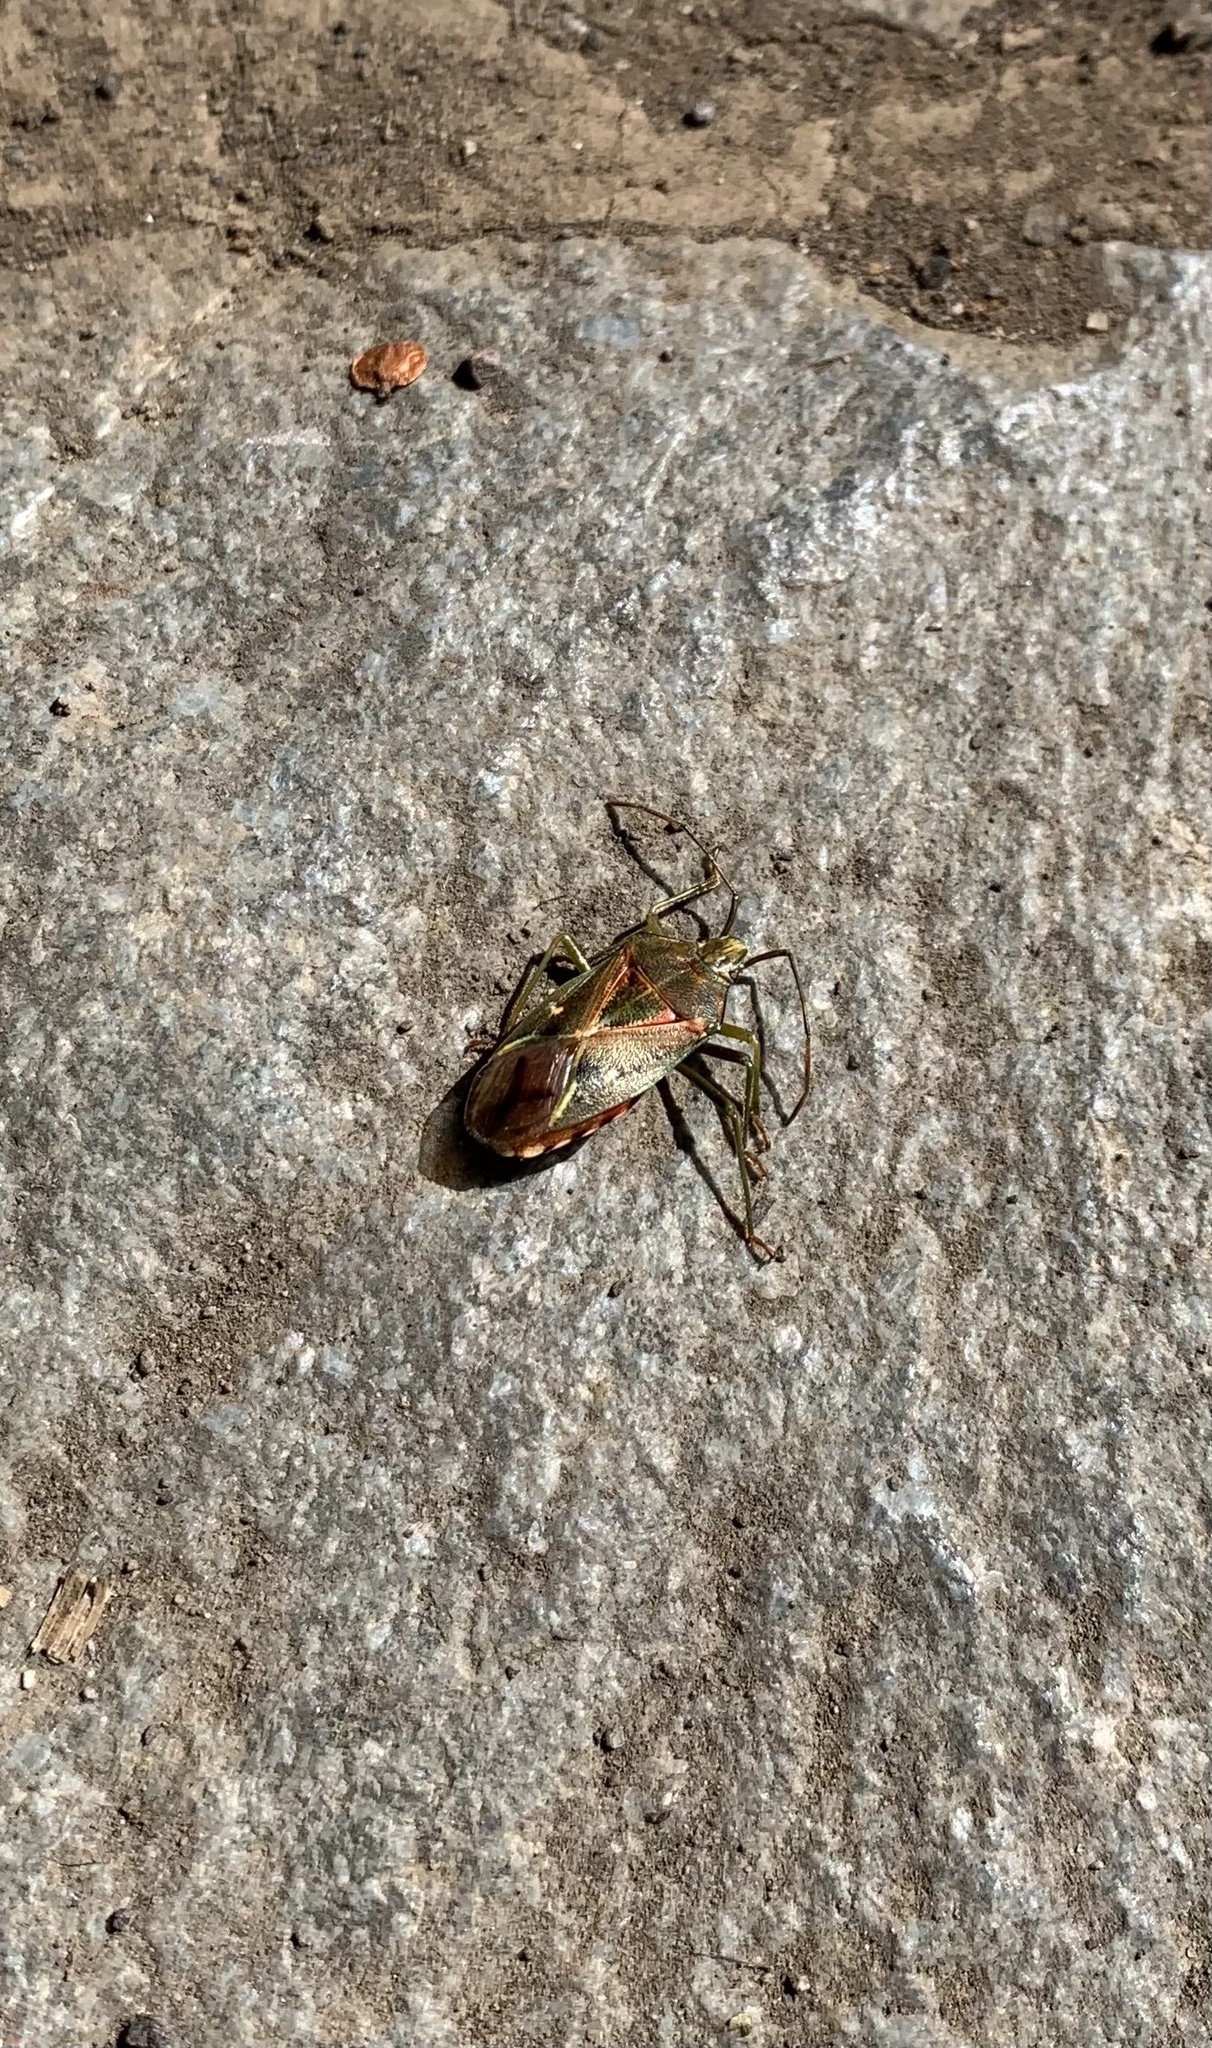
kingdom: Animalia
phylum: Arthropoda
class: Insecta
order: Hemiptera
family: Acanthosomatidae
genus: Planois
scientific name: Planois gayi
